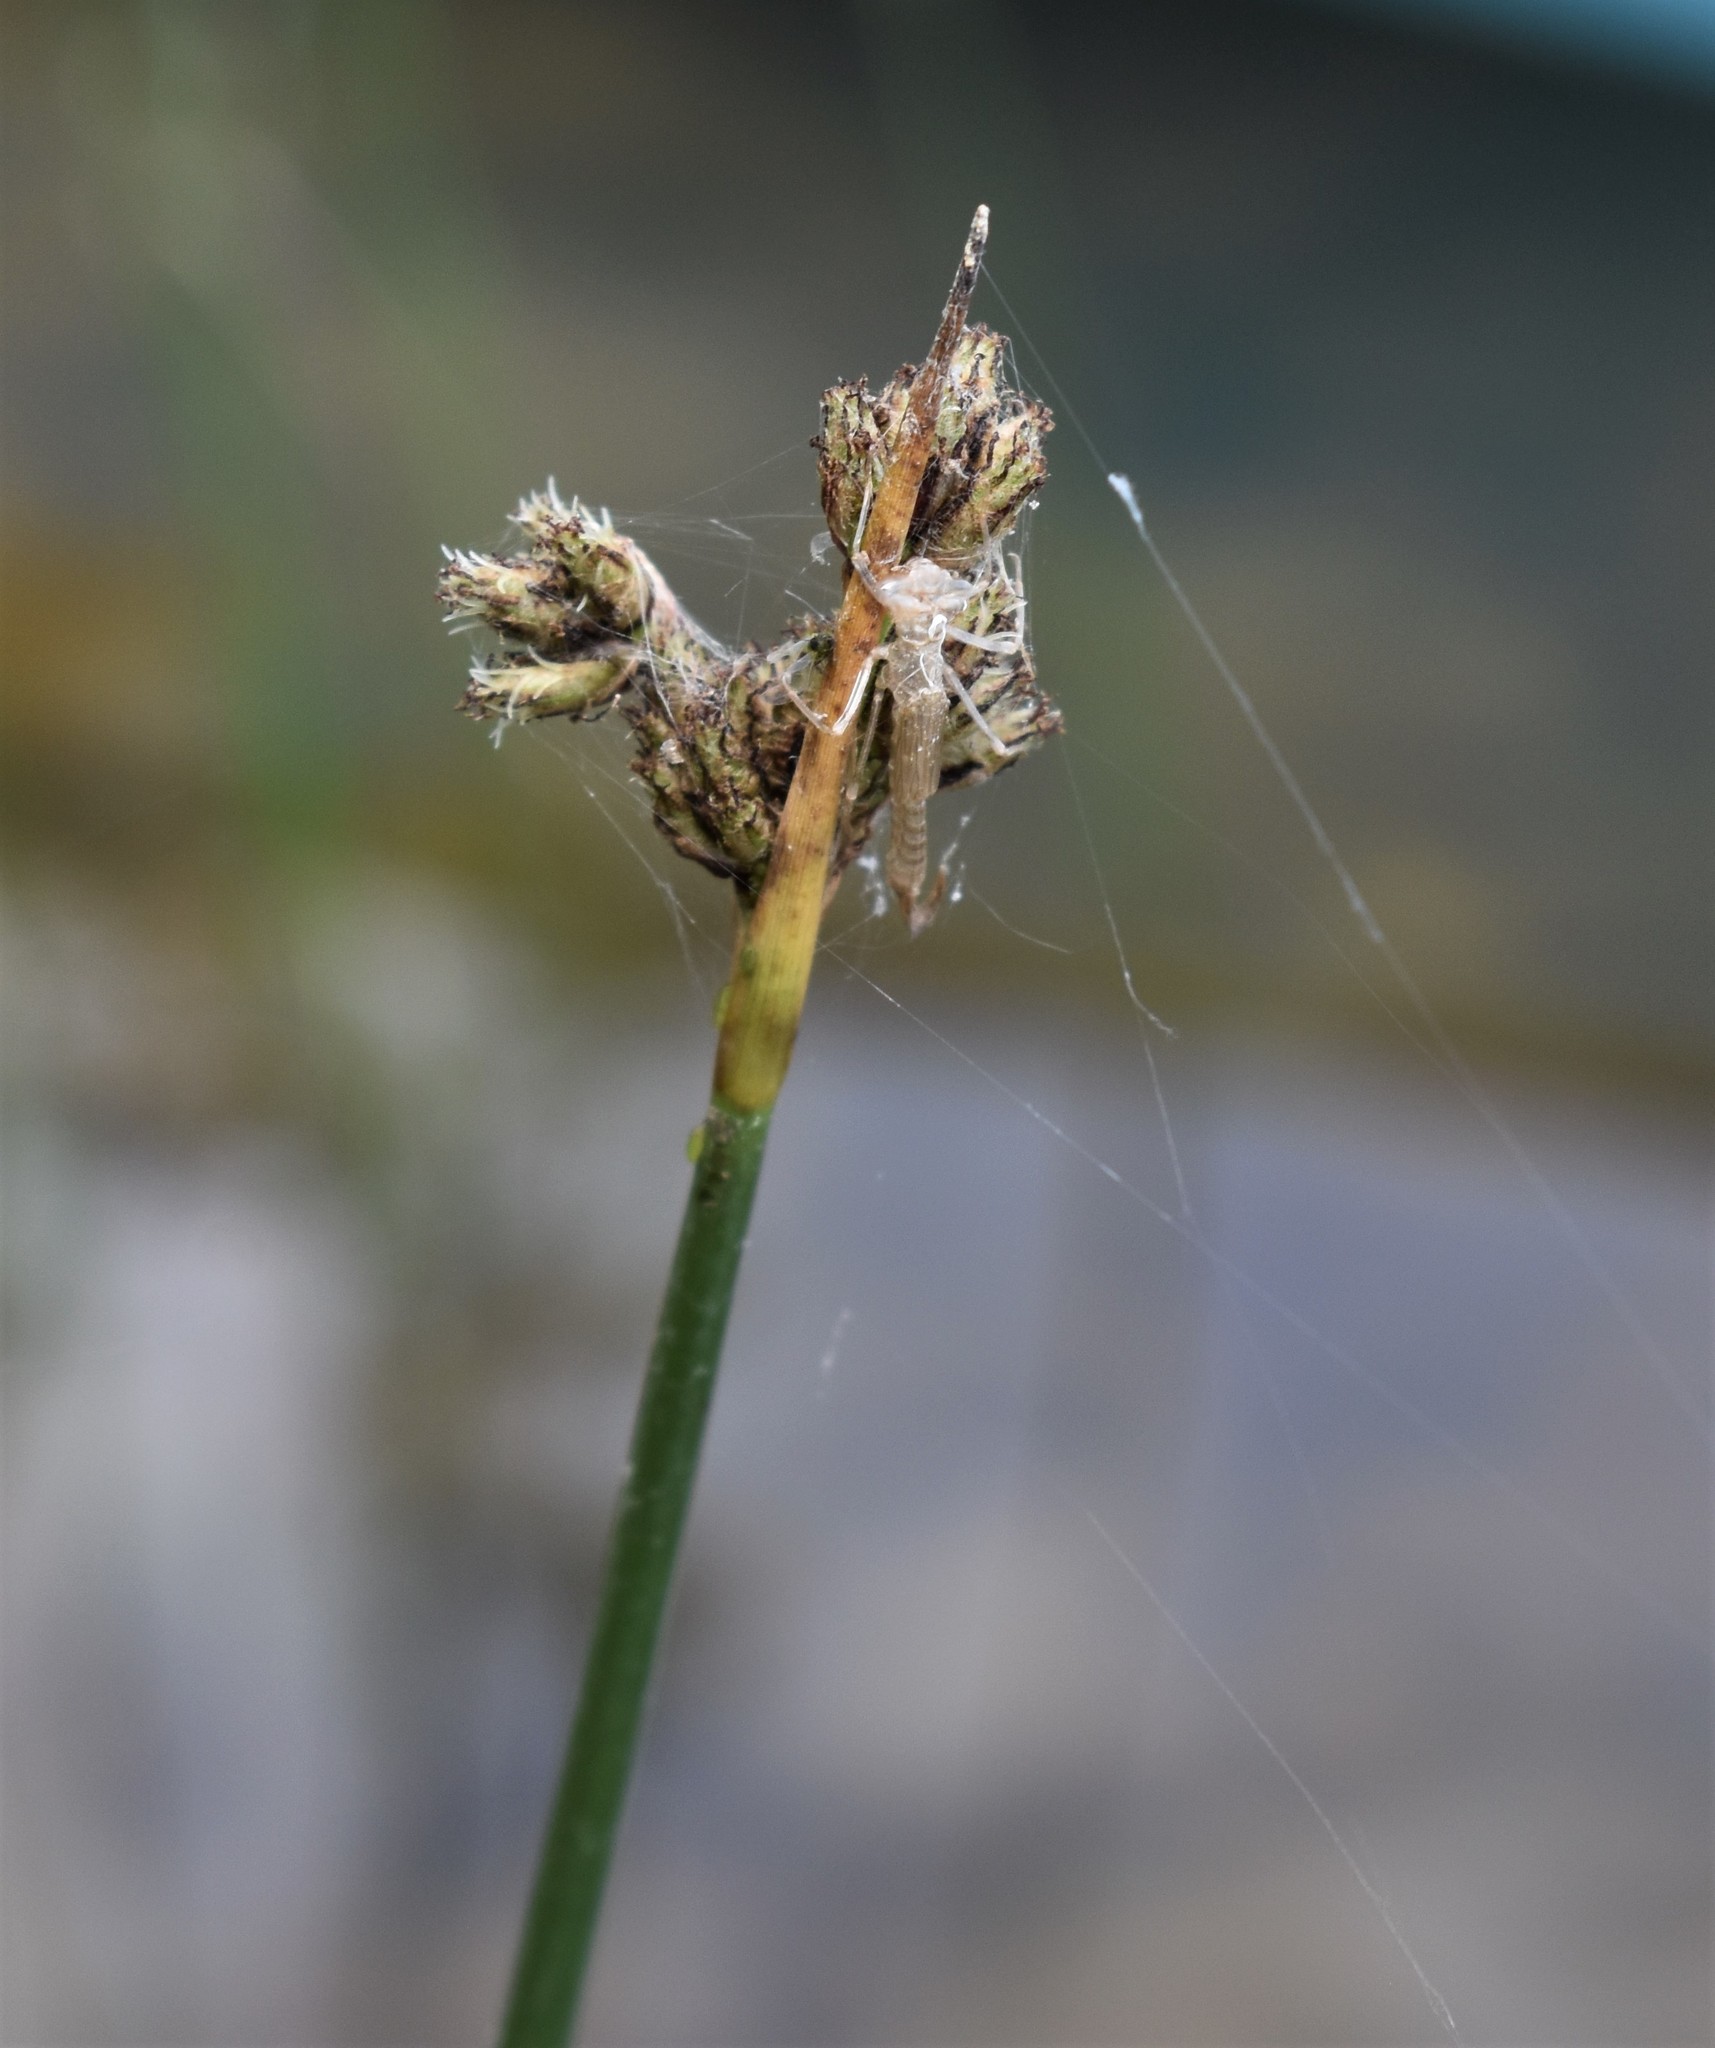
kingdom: Plantae
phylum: Tracheophyta
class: Liliopsida
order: Poales
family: Cyperaceae
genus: Schoenoplectus
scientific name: Schoenoplectus acutus
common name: Hardstem bulrush
